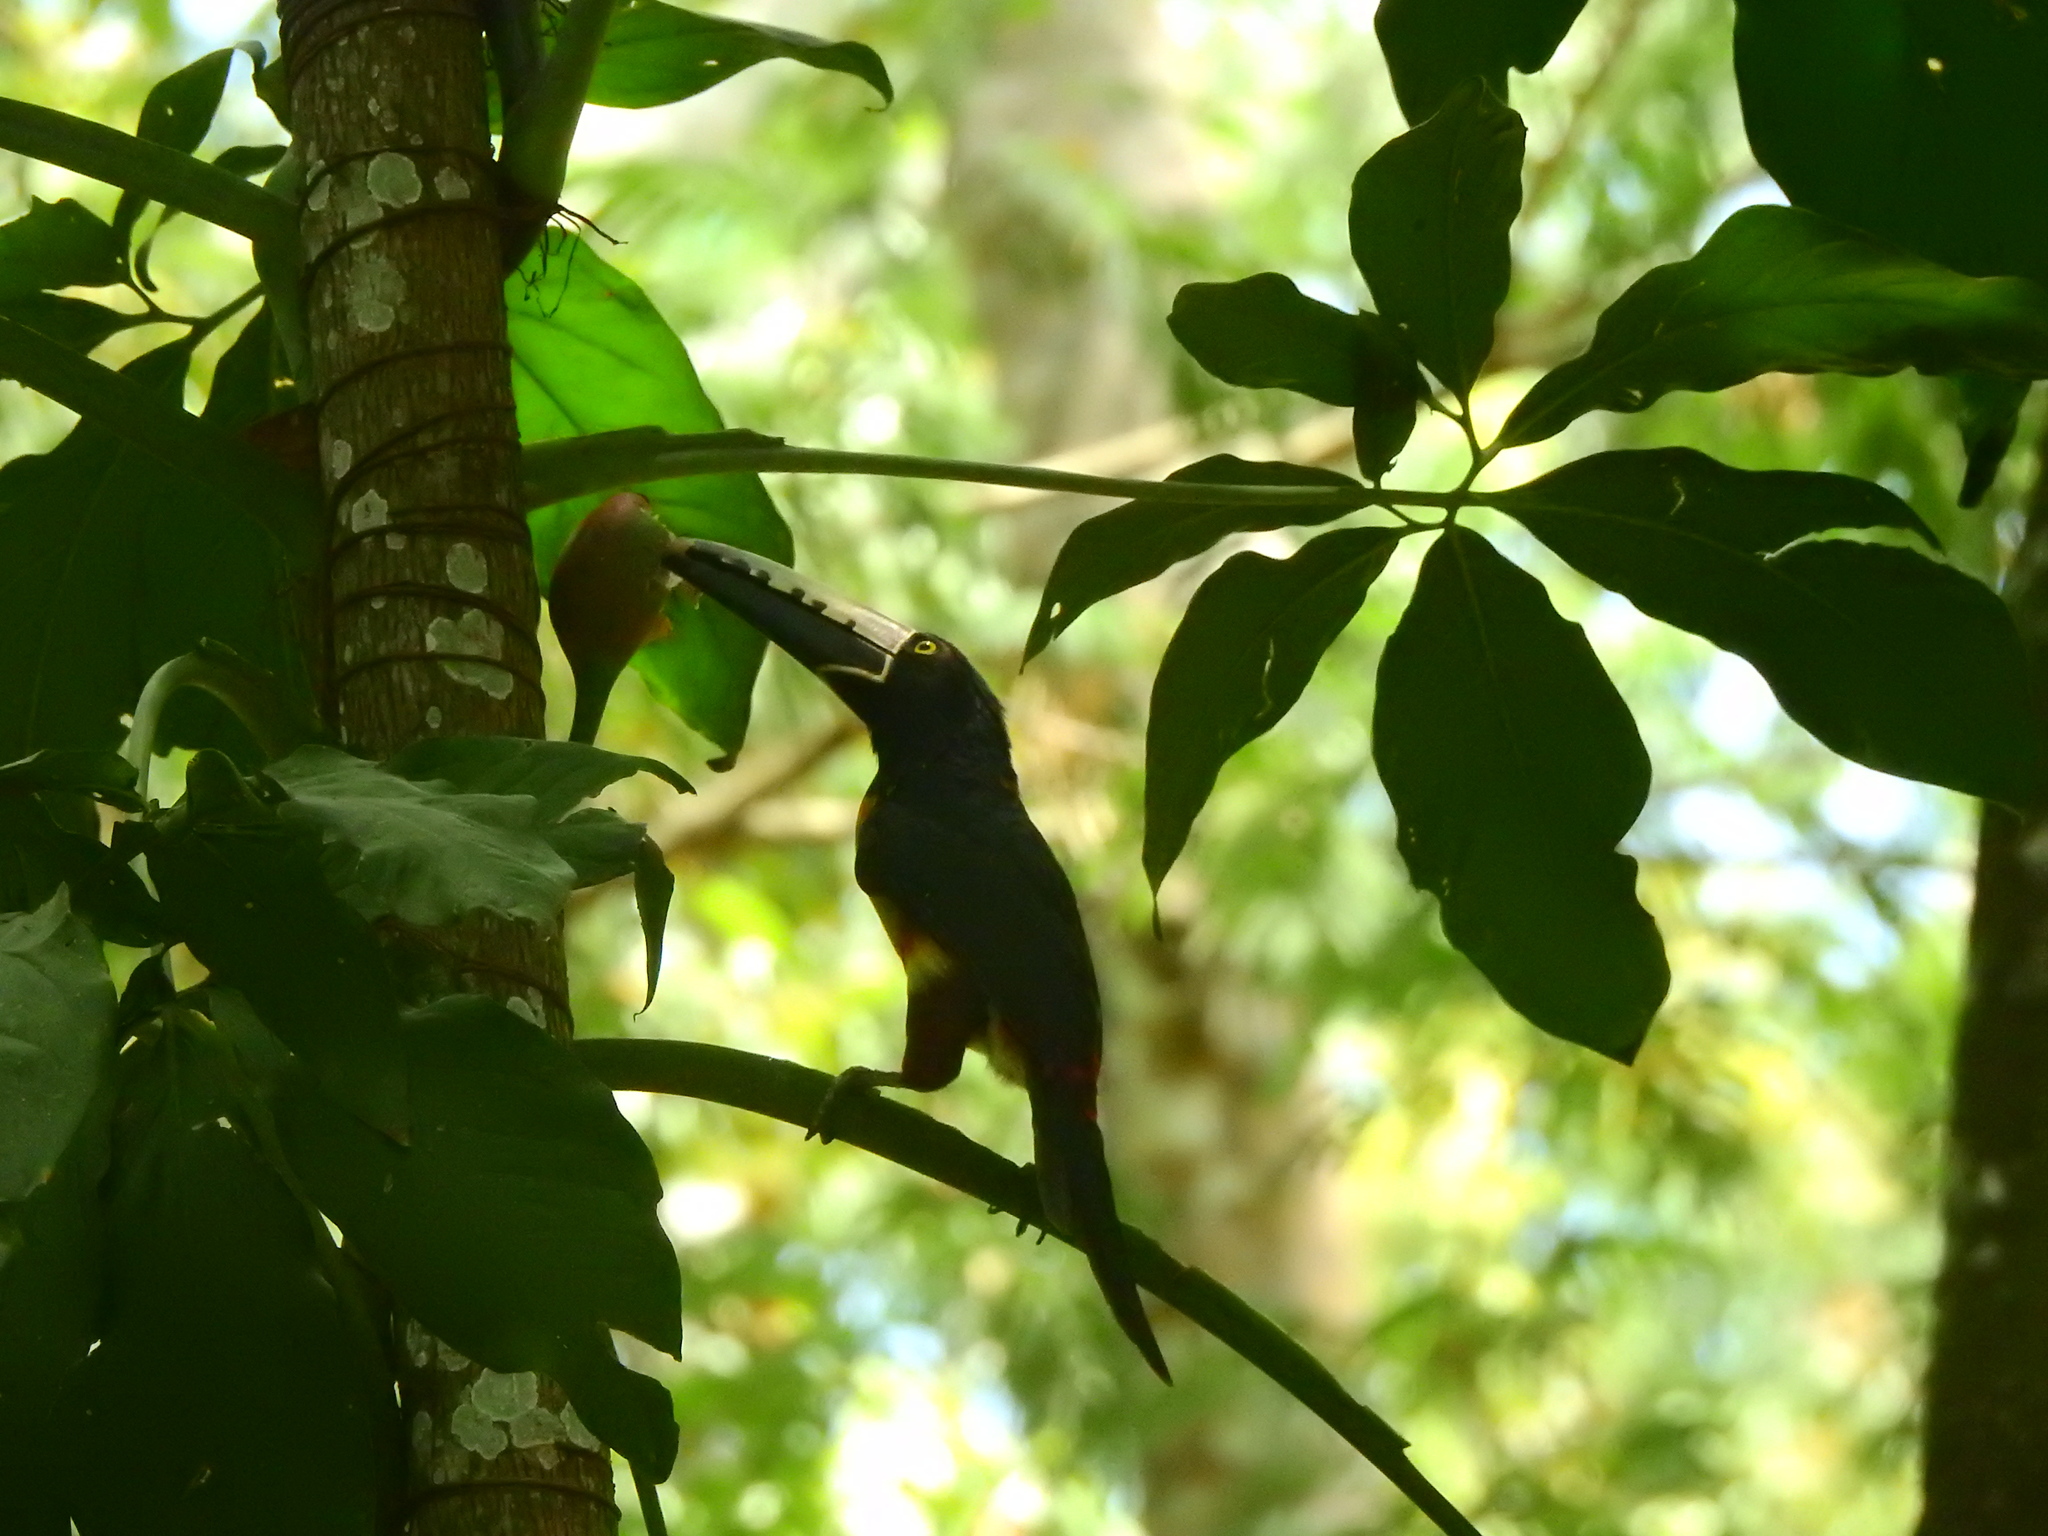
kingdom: Animalia
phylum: Chordata
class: Aves
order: Piciformes
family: Ramphastidae
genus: Pteroglossus
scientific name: Pteroglossus torquatus
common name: Collared aracari
